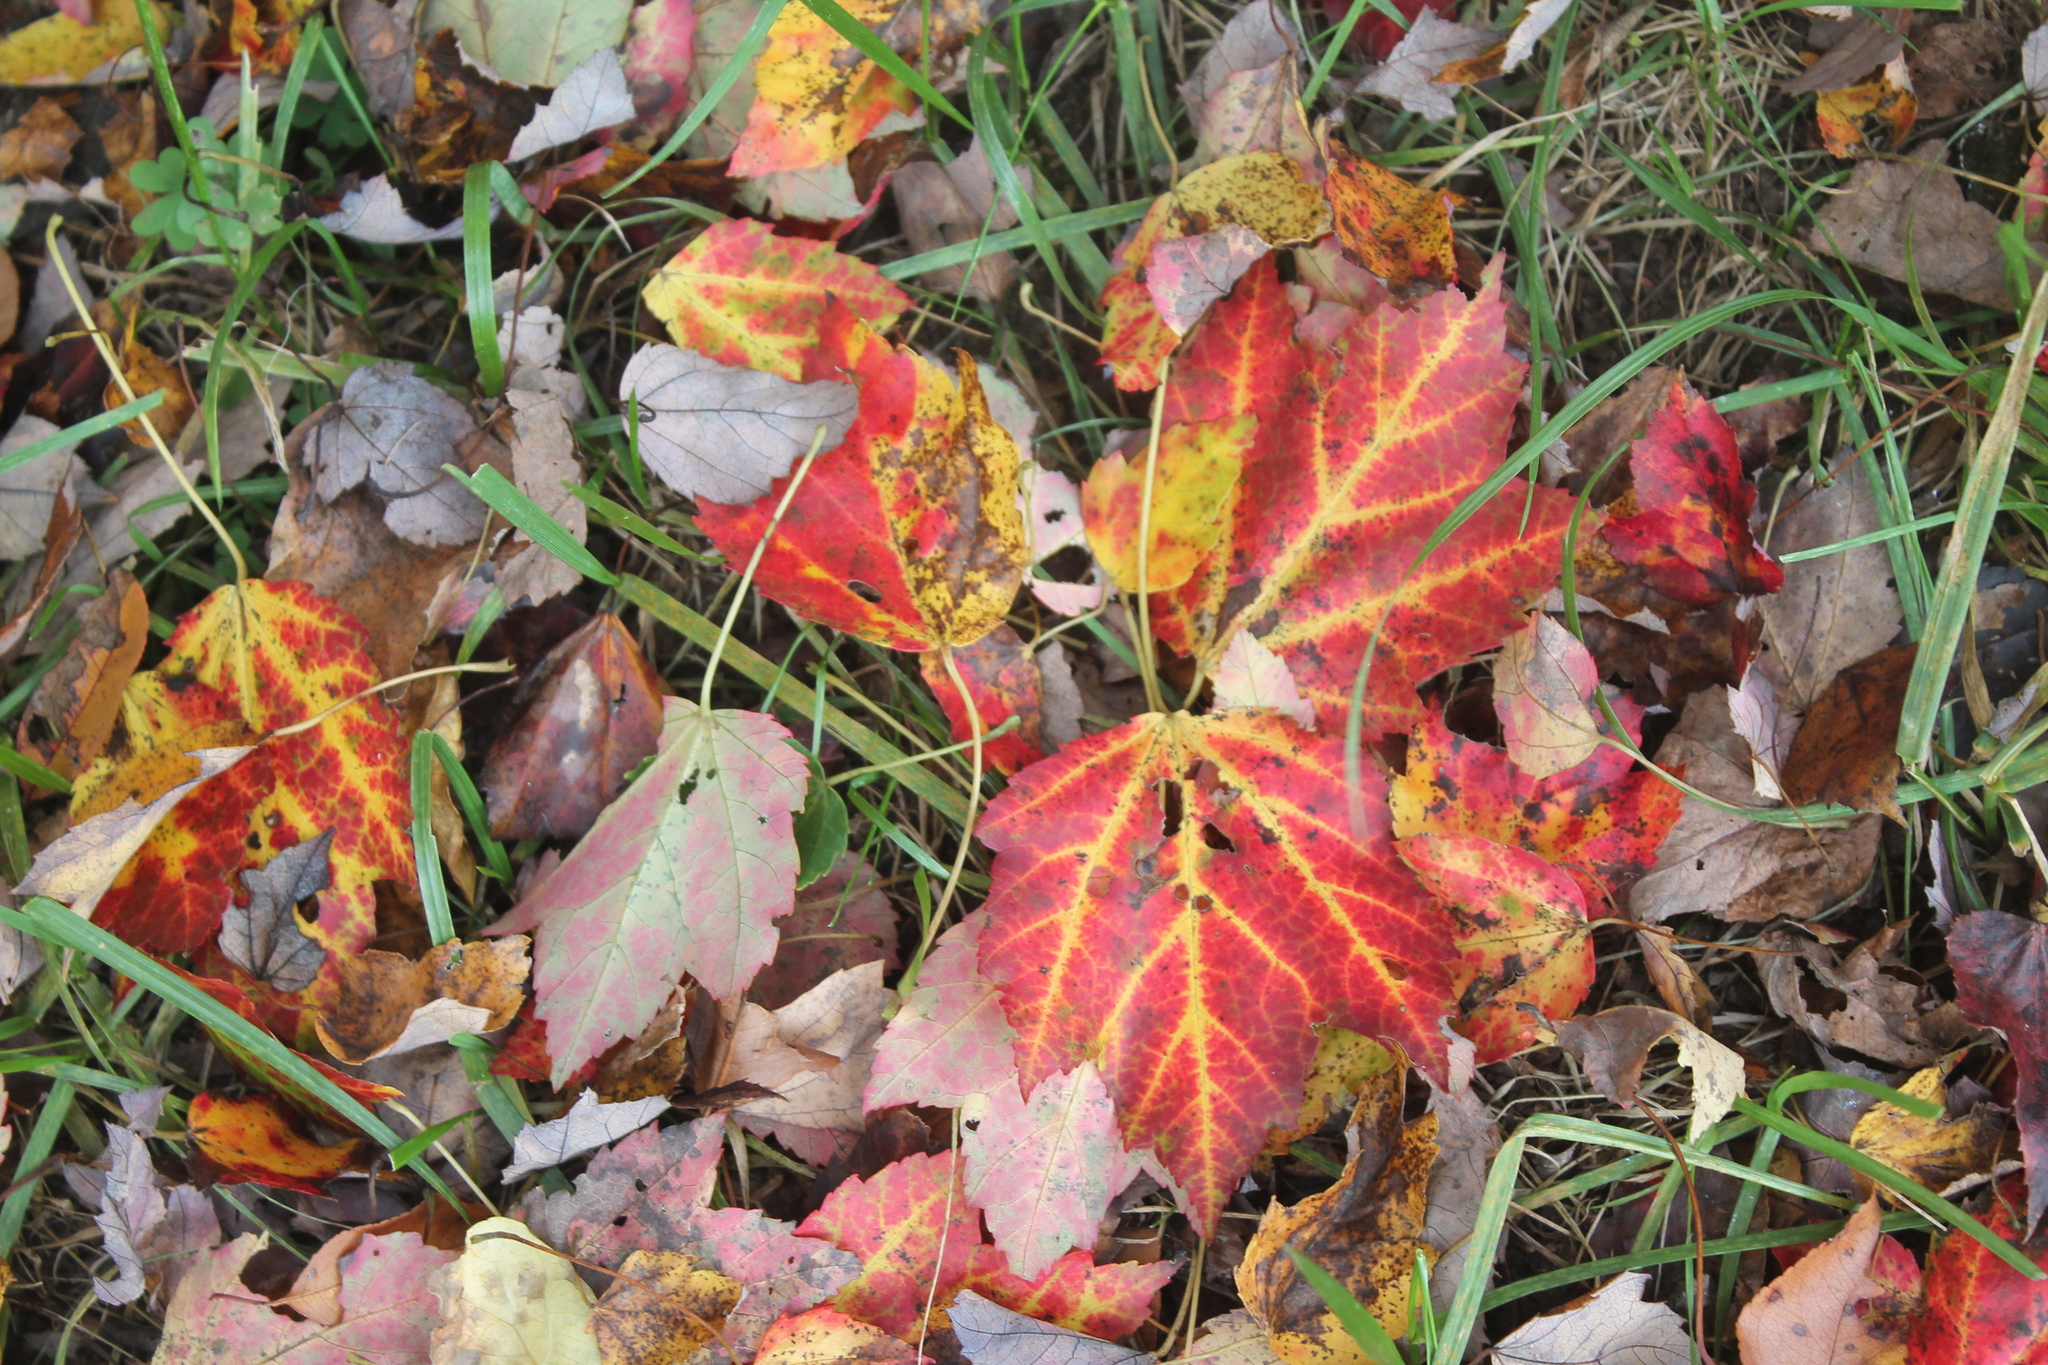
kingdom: Plantae
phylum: Tracheophyta
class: Magnoliopsida
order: Sapindales
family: Sapindaceae
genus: Acer
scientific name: Acer rubrum
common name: Red maple
